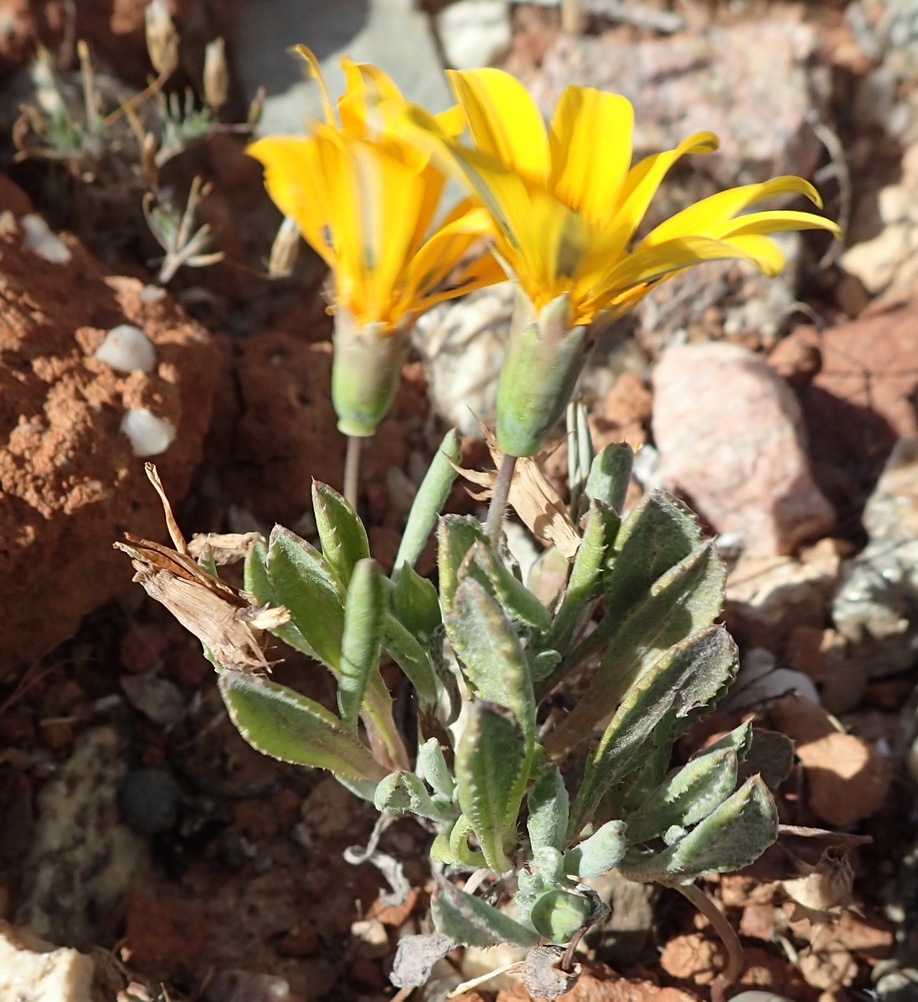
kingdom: Plantae
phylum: Tracheophyta
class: Magnoliopsida
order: Asterales
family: Asteraceae
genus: Gazania
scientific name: Gazania lichtensteinii
